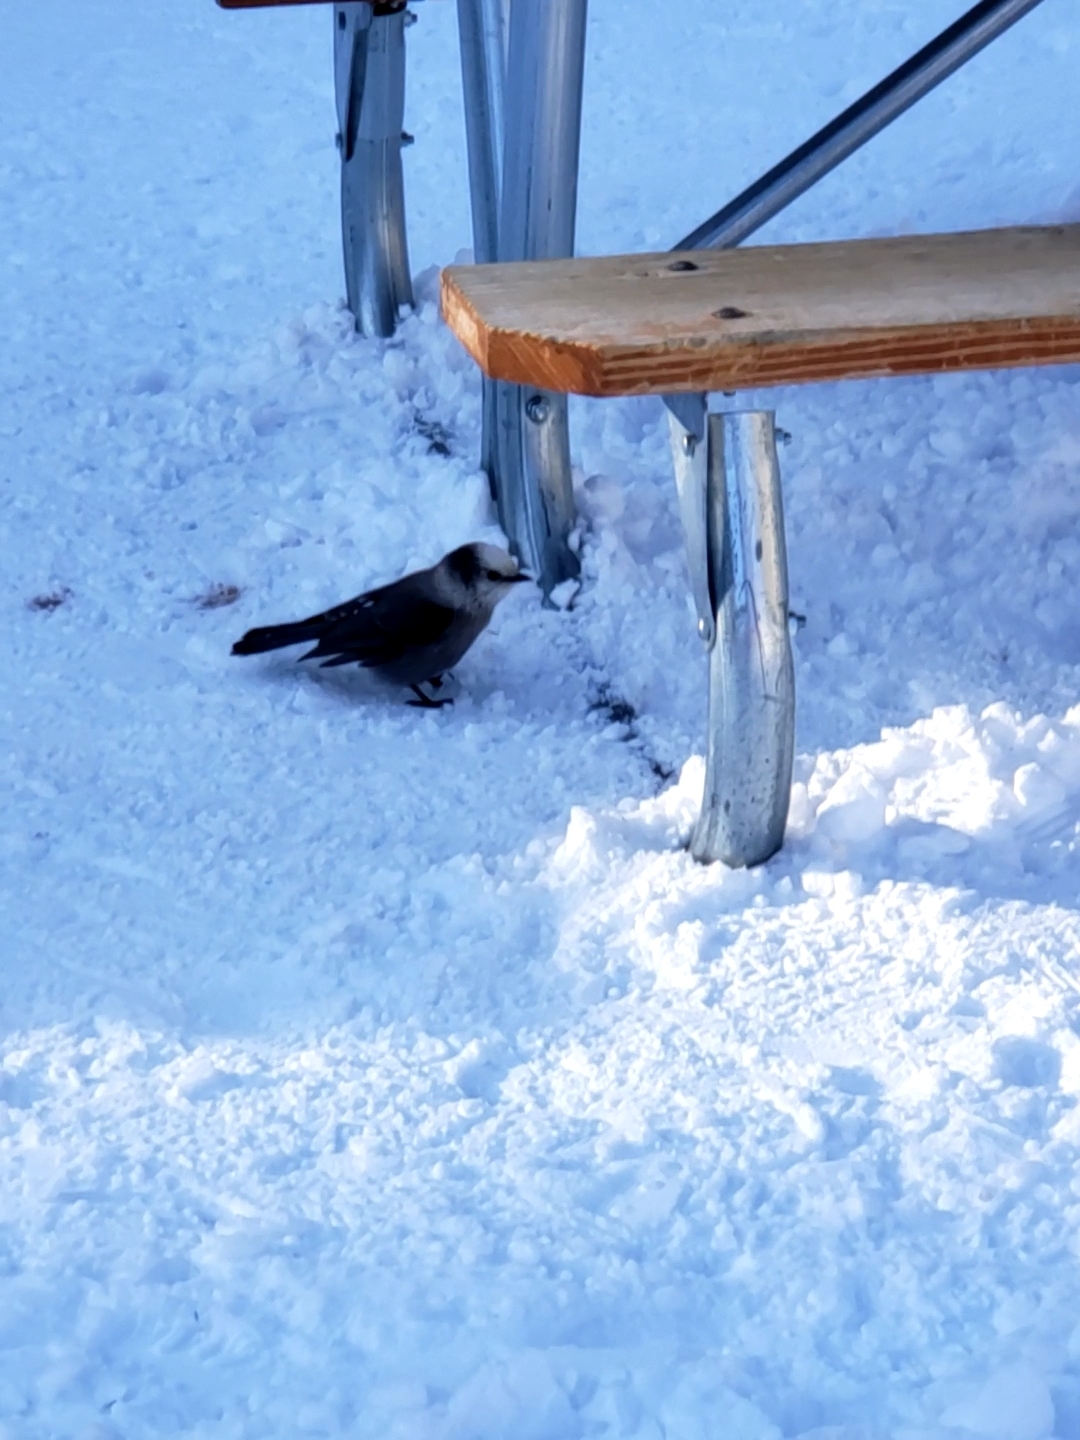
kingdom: Animalia
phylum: Chordata
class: Aves
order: Passeriformes
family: Corvidae
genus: Perisoreus
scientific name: Perisoreus canadensis
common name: Gray jay
